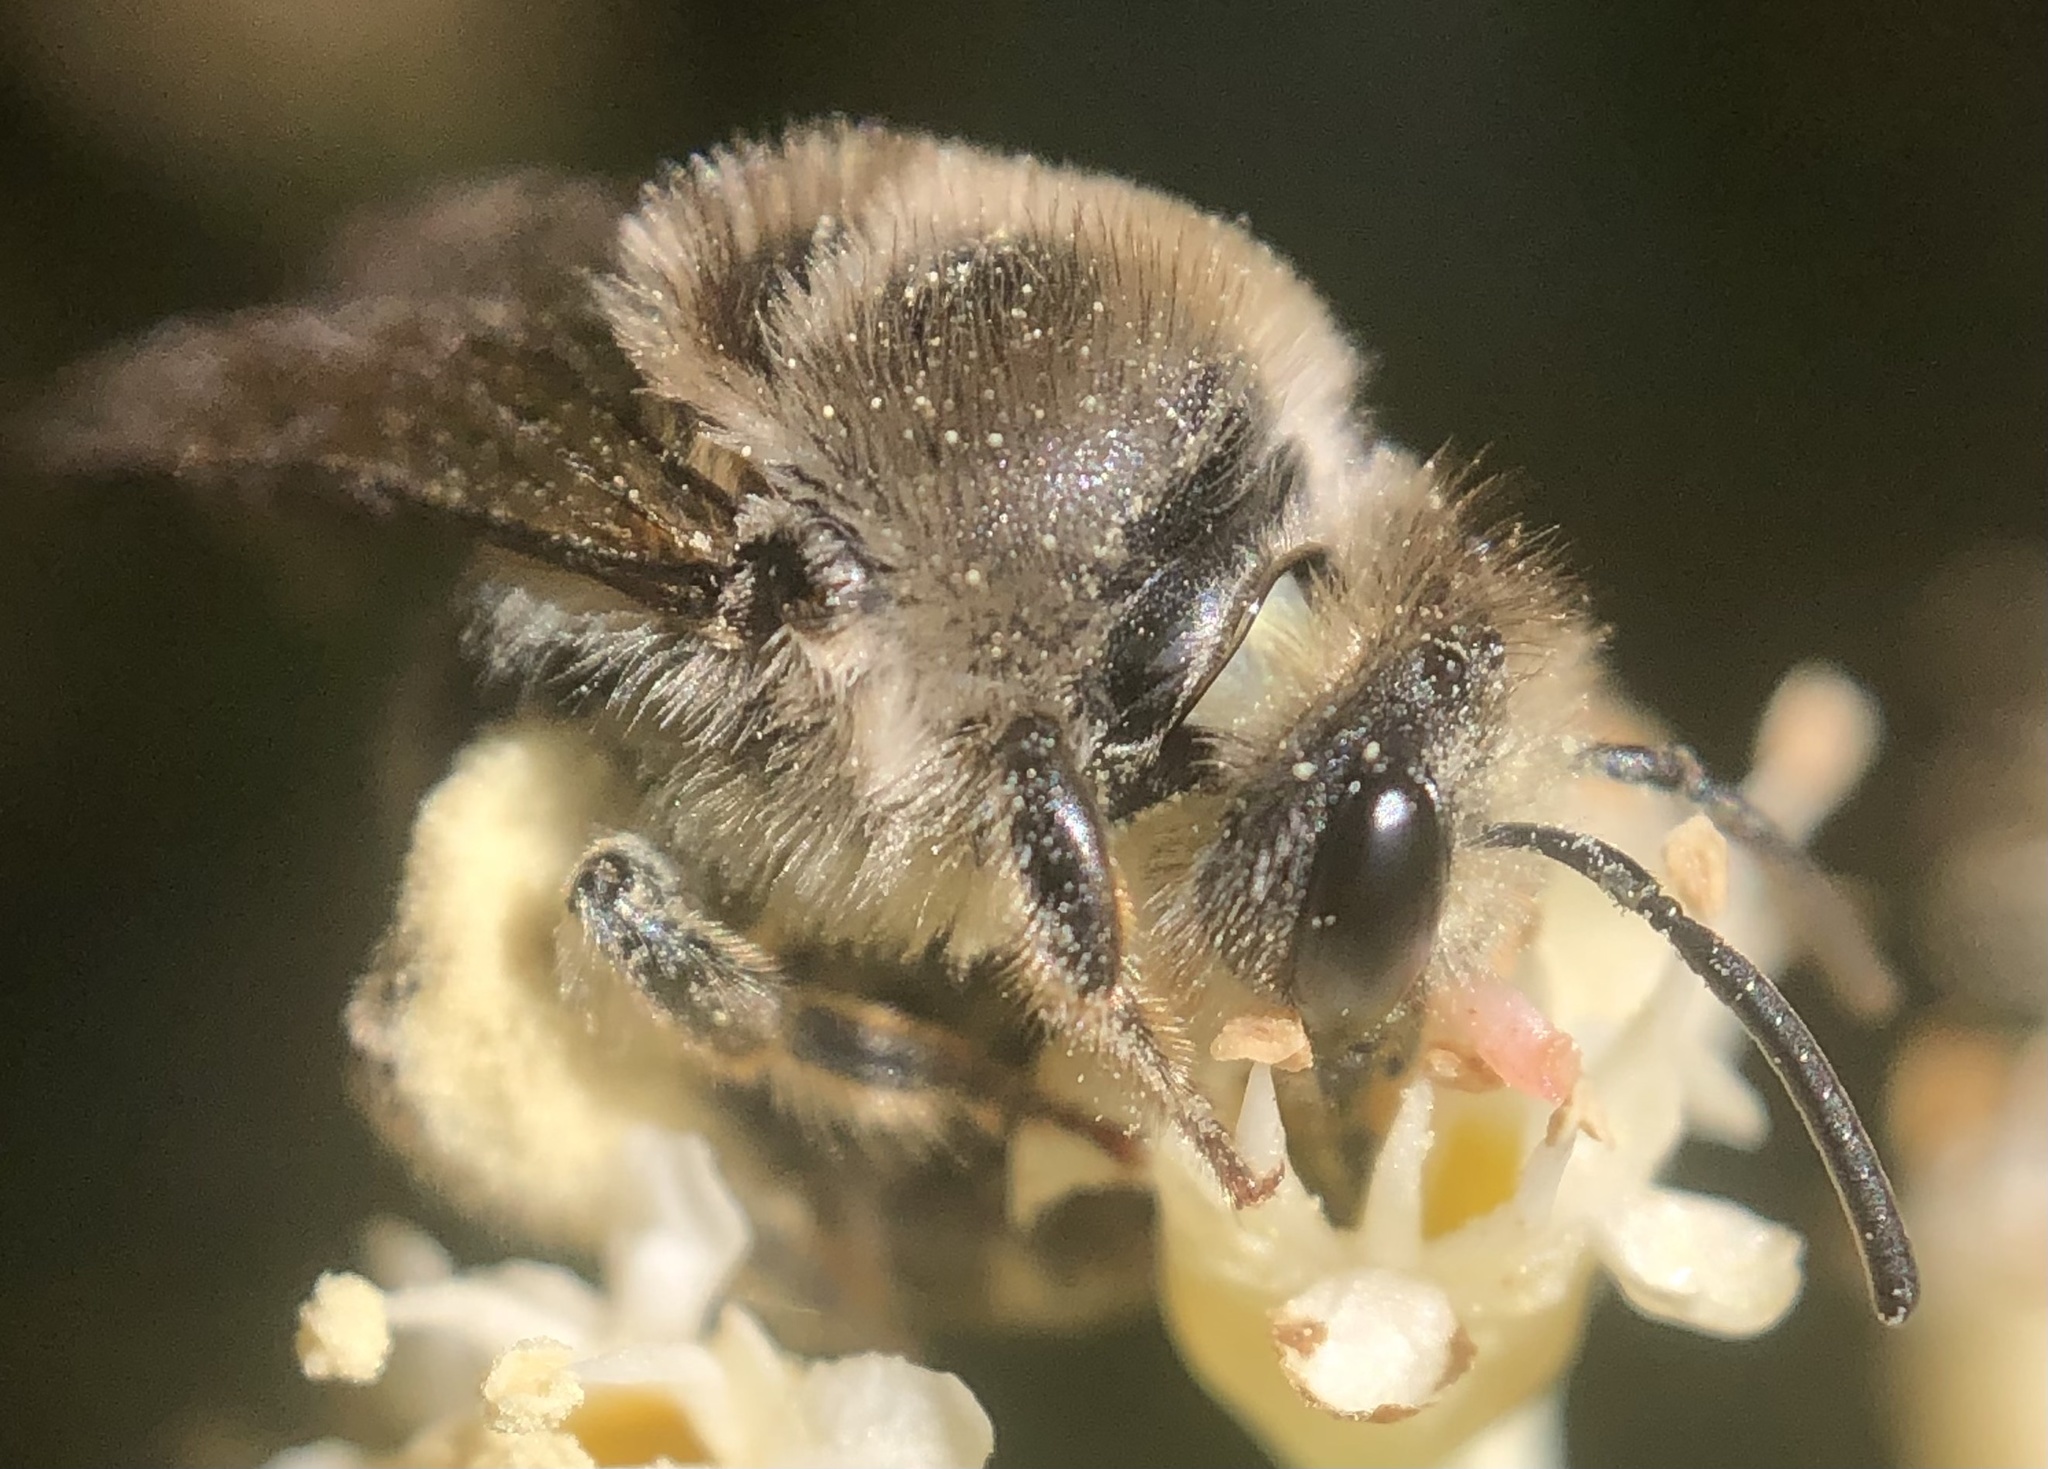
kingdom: Animalia
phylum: Arthropoda
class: Insecta
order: Hymenoptera
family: Colletidae
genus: Colletes
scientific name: Colletes inaequalis
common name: Unequal cellophane bee
